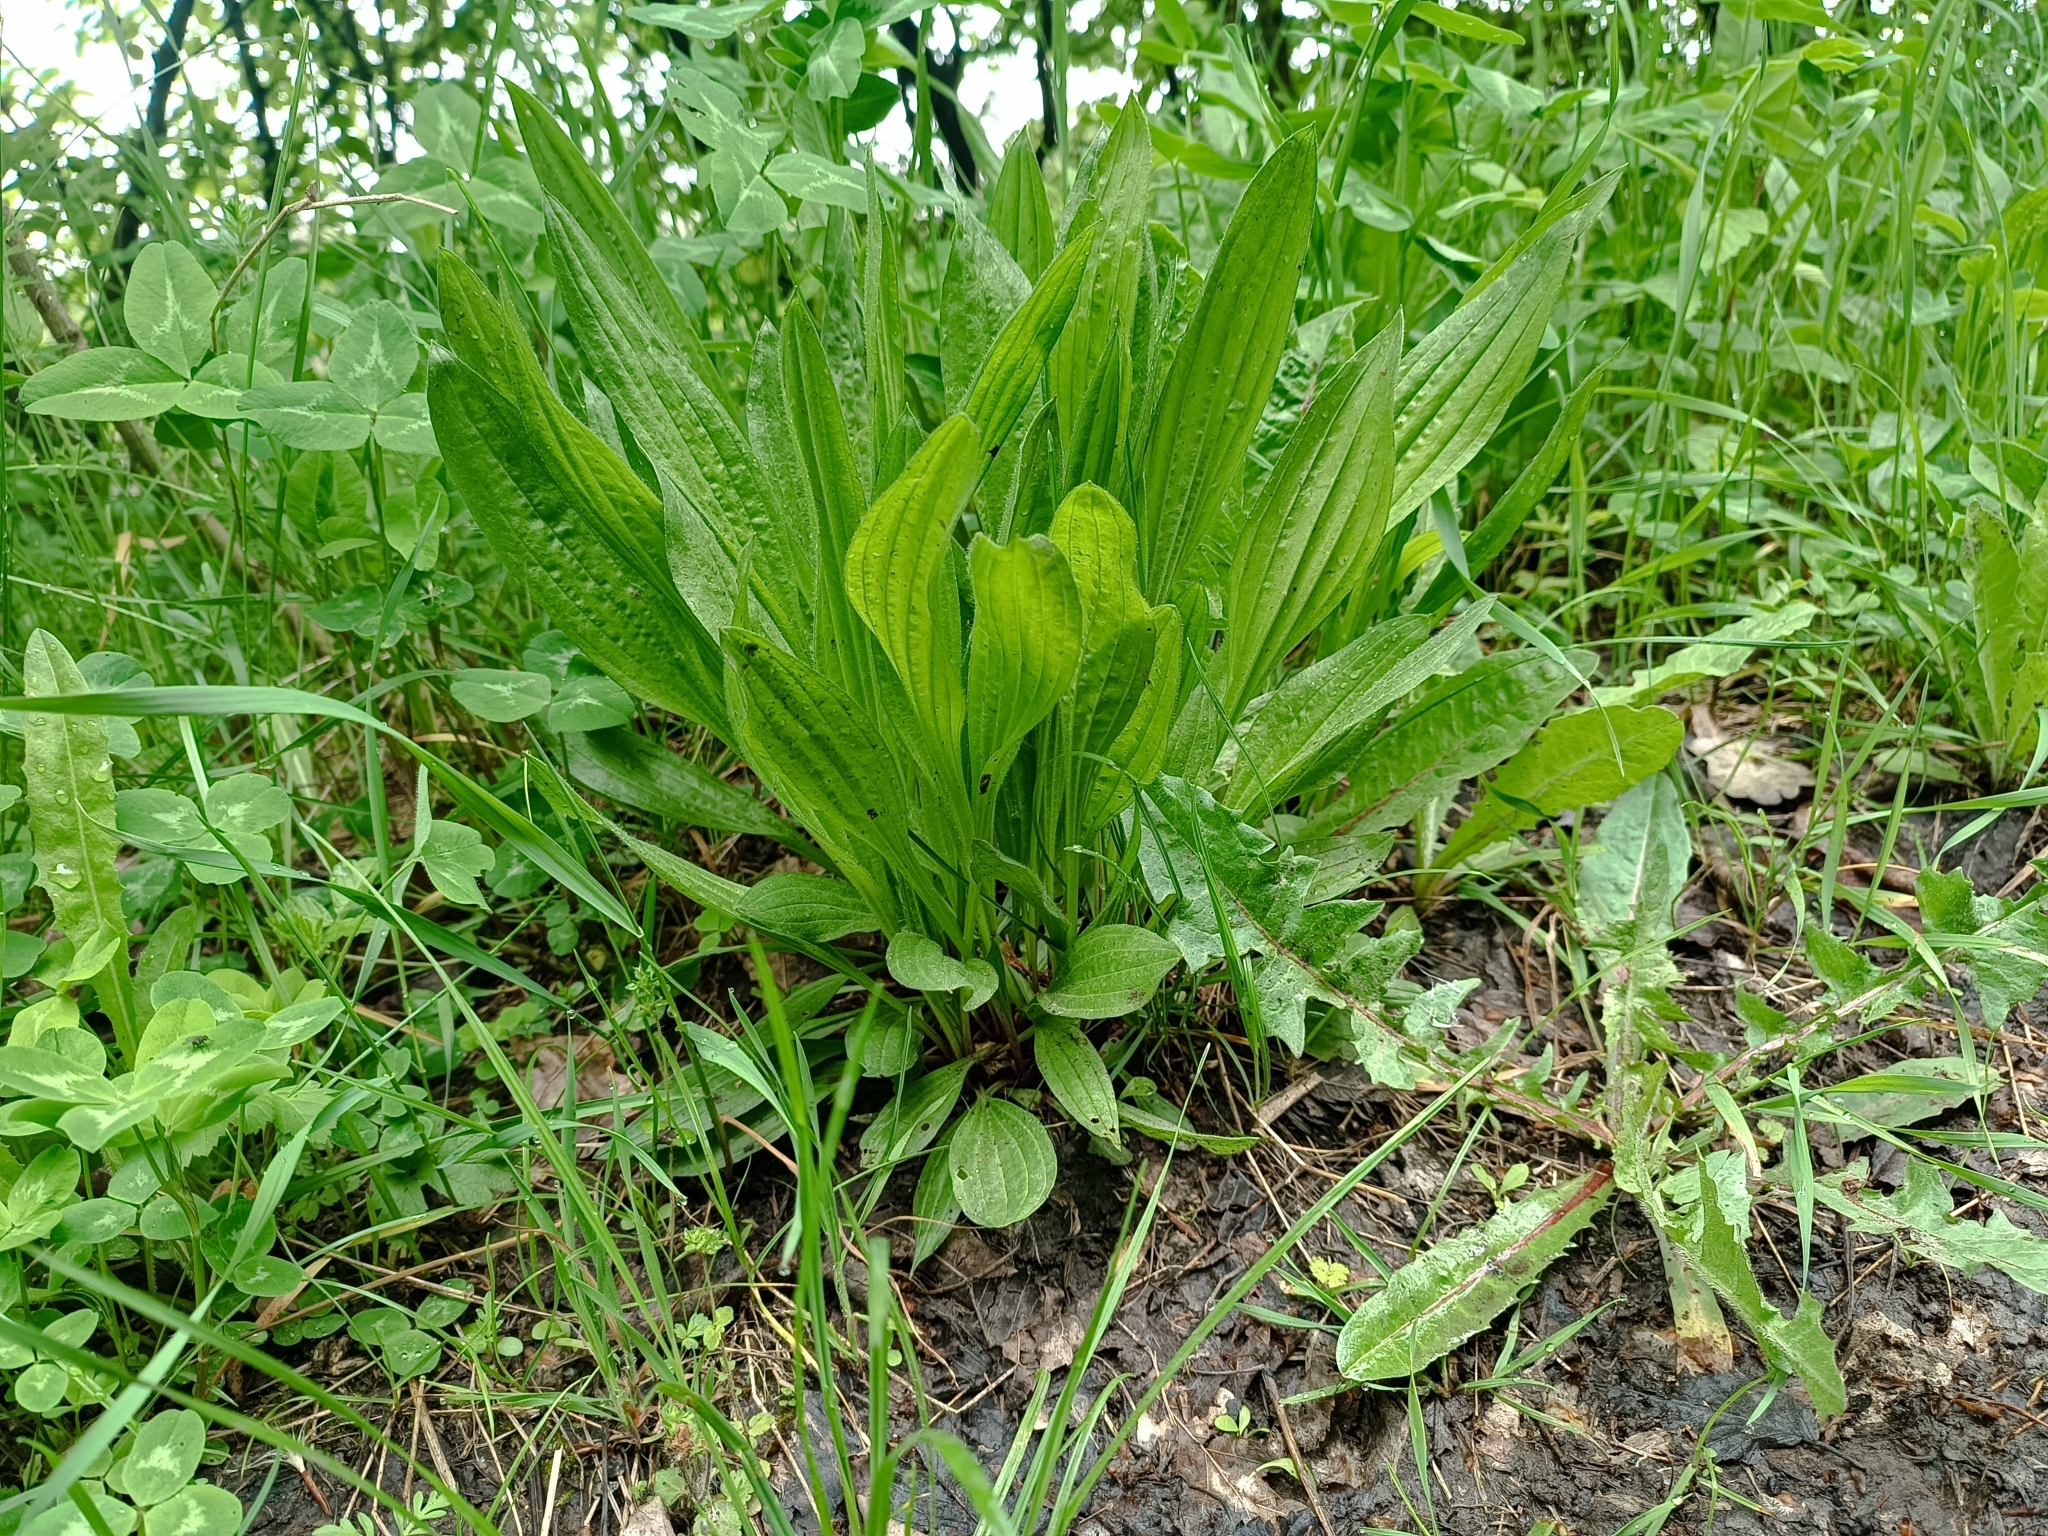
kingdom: Plantae
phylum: Tracheophyta
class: Magnoliopsida
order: Lamiales
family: Plantaginaceae
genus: Plantago
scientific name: Plantago lanceolata
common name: Ribwort plantain
